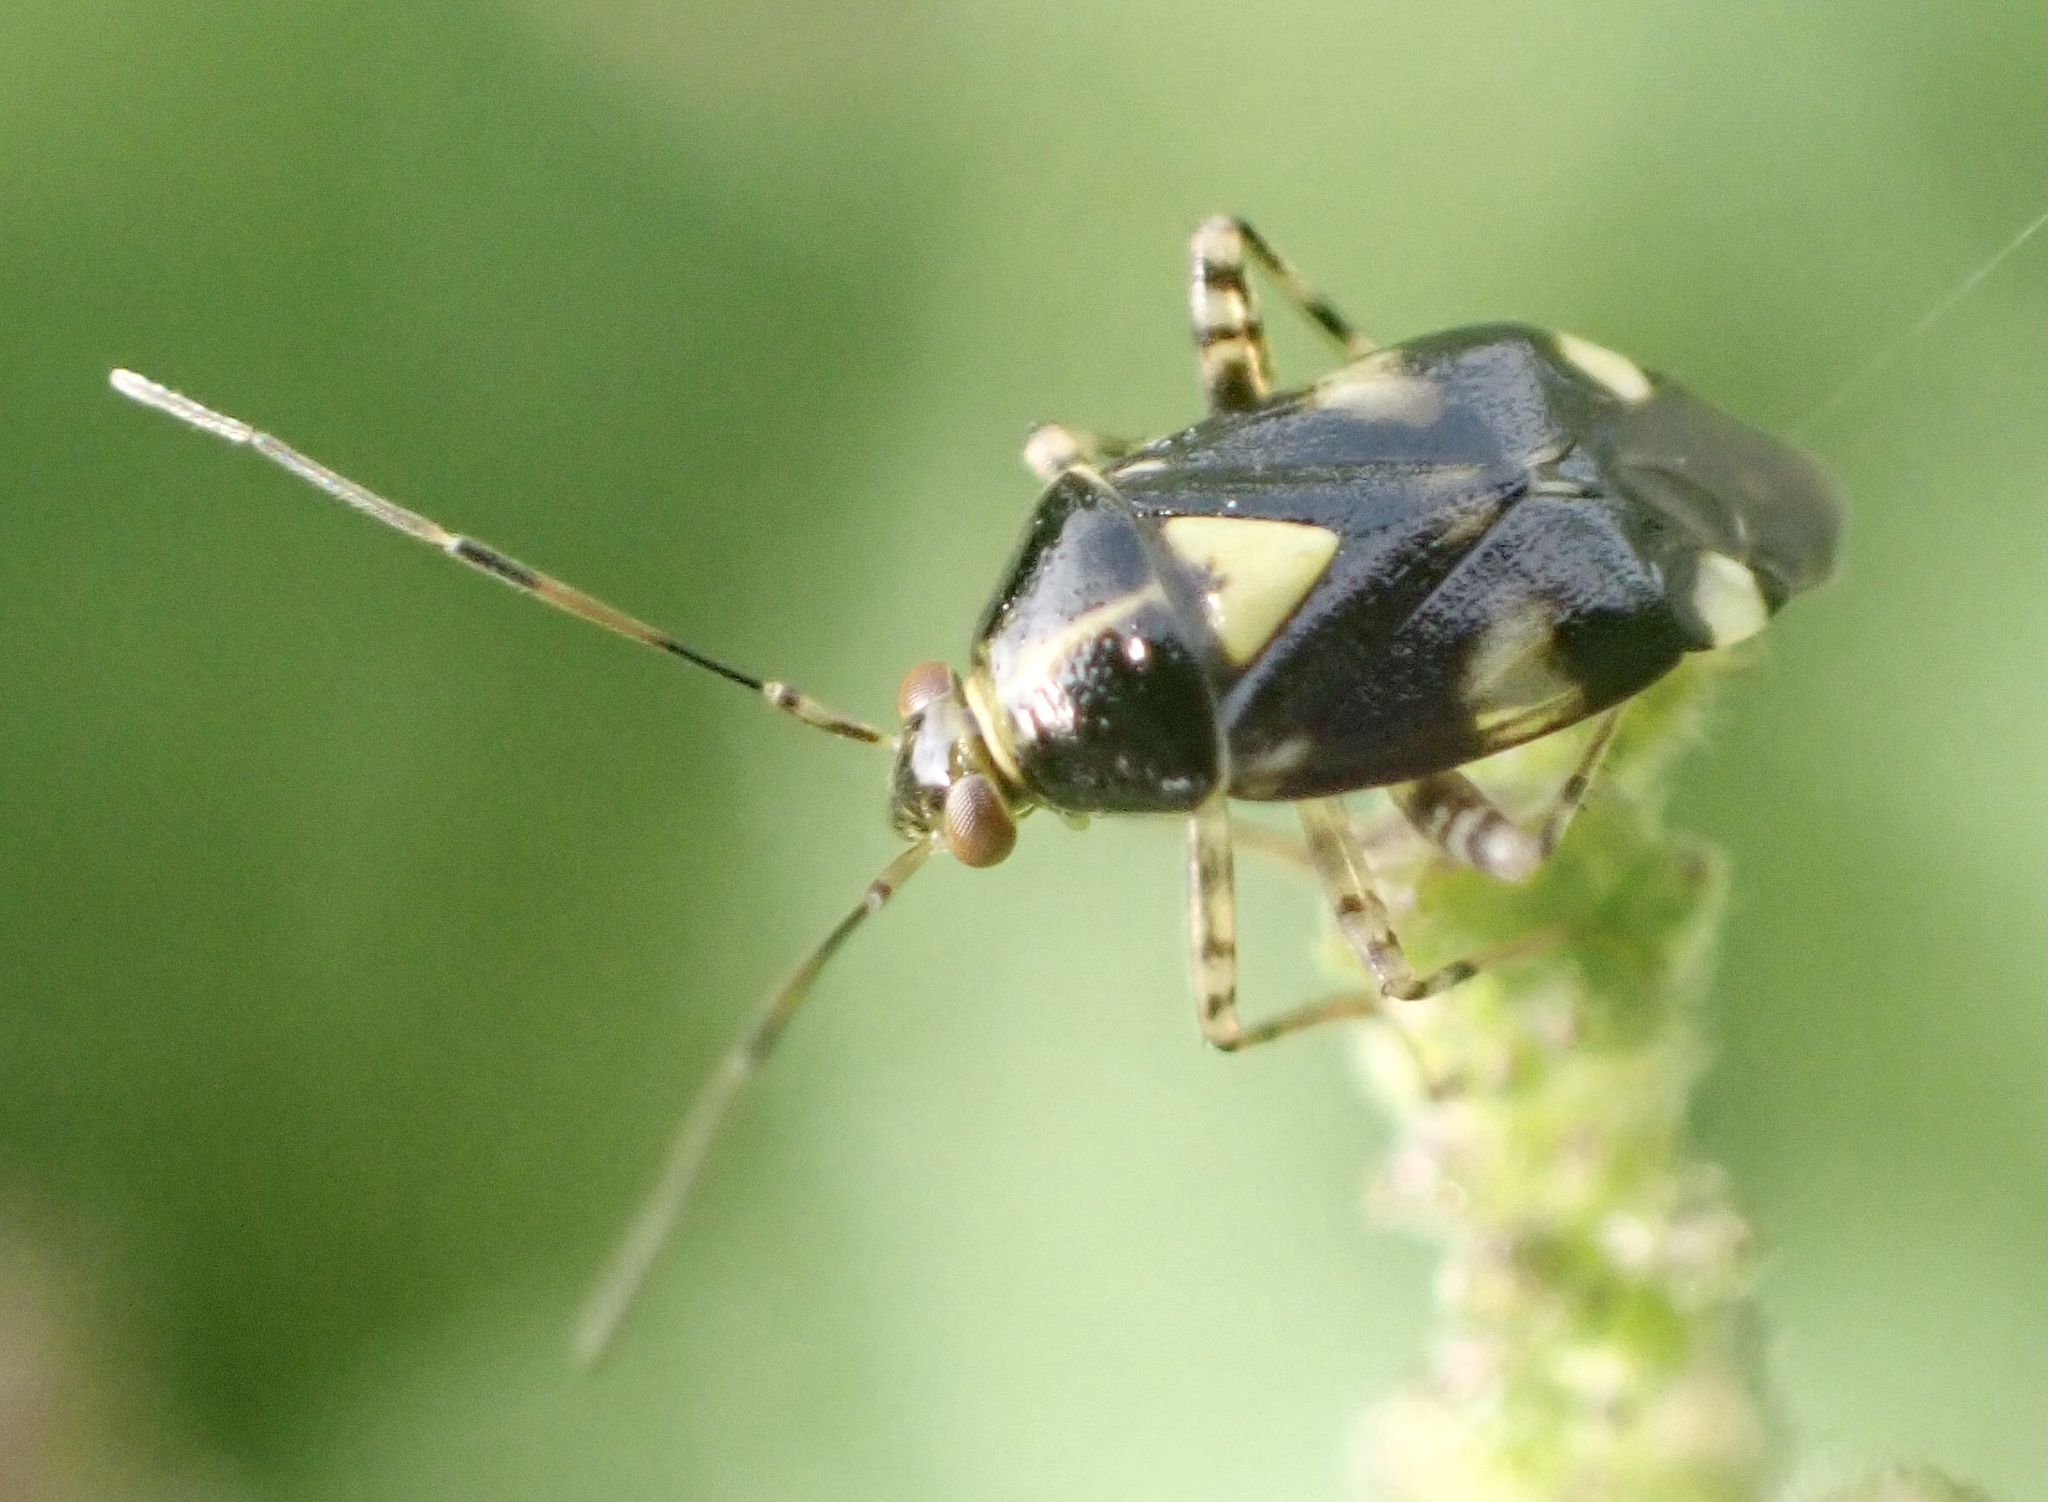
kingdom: Animalia
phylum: Arthropoda
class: Insecta
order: Hemiptera
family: Miridae
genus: Liocoris
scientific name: Liocoris tripustulatus
